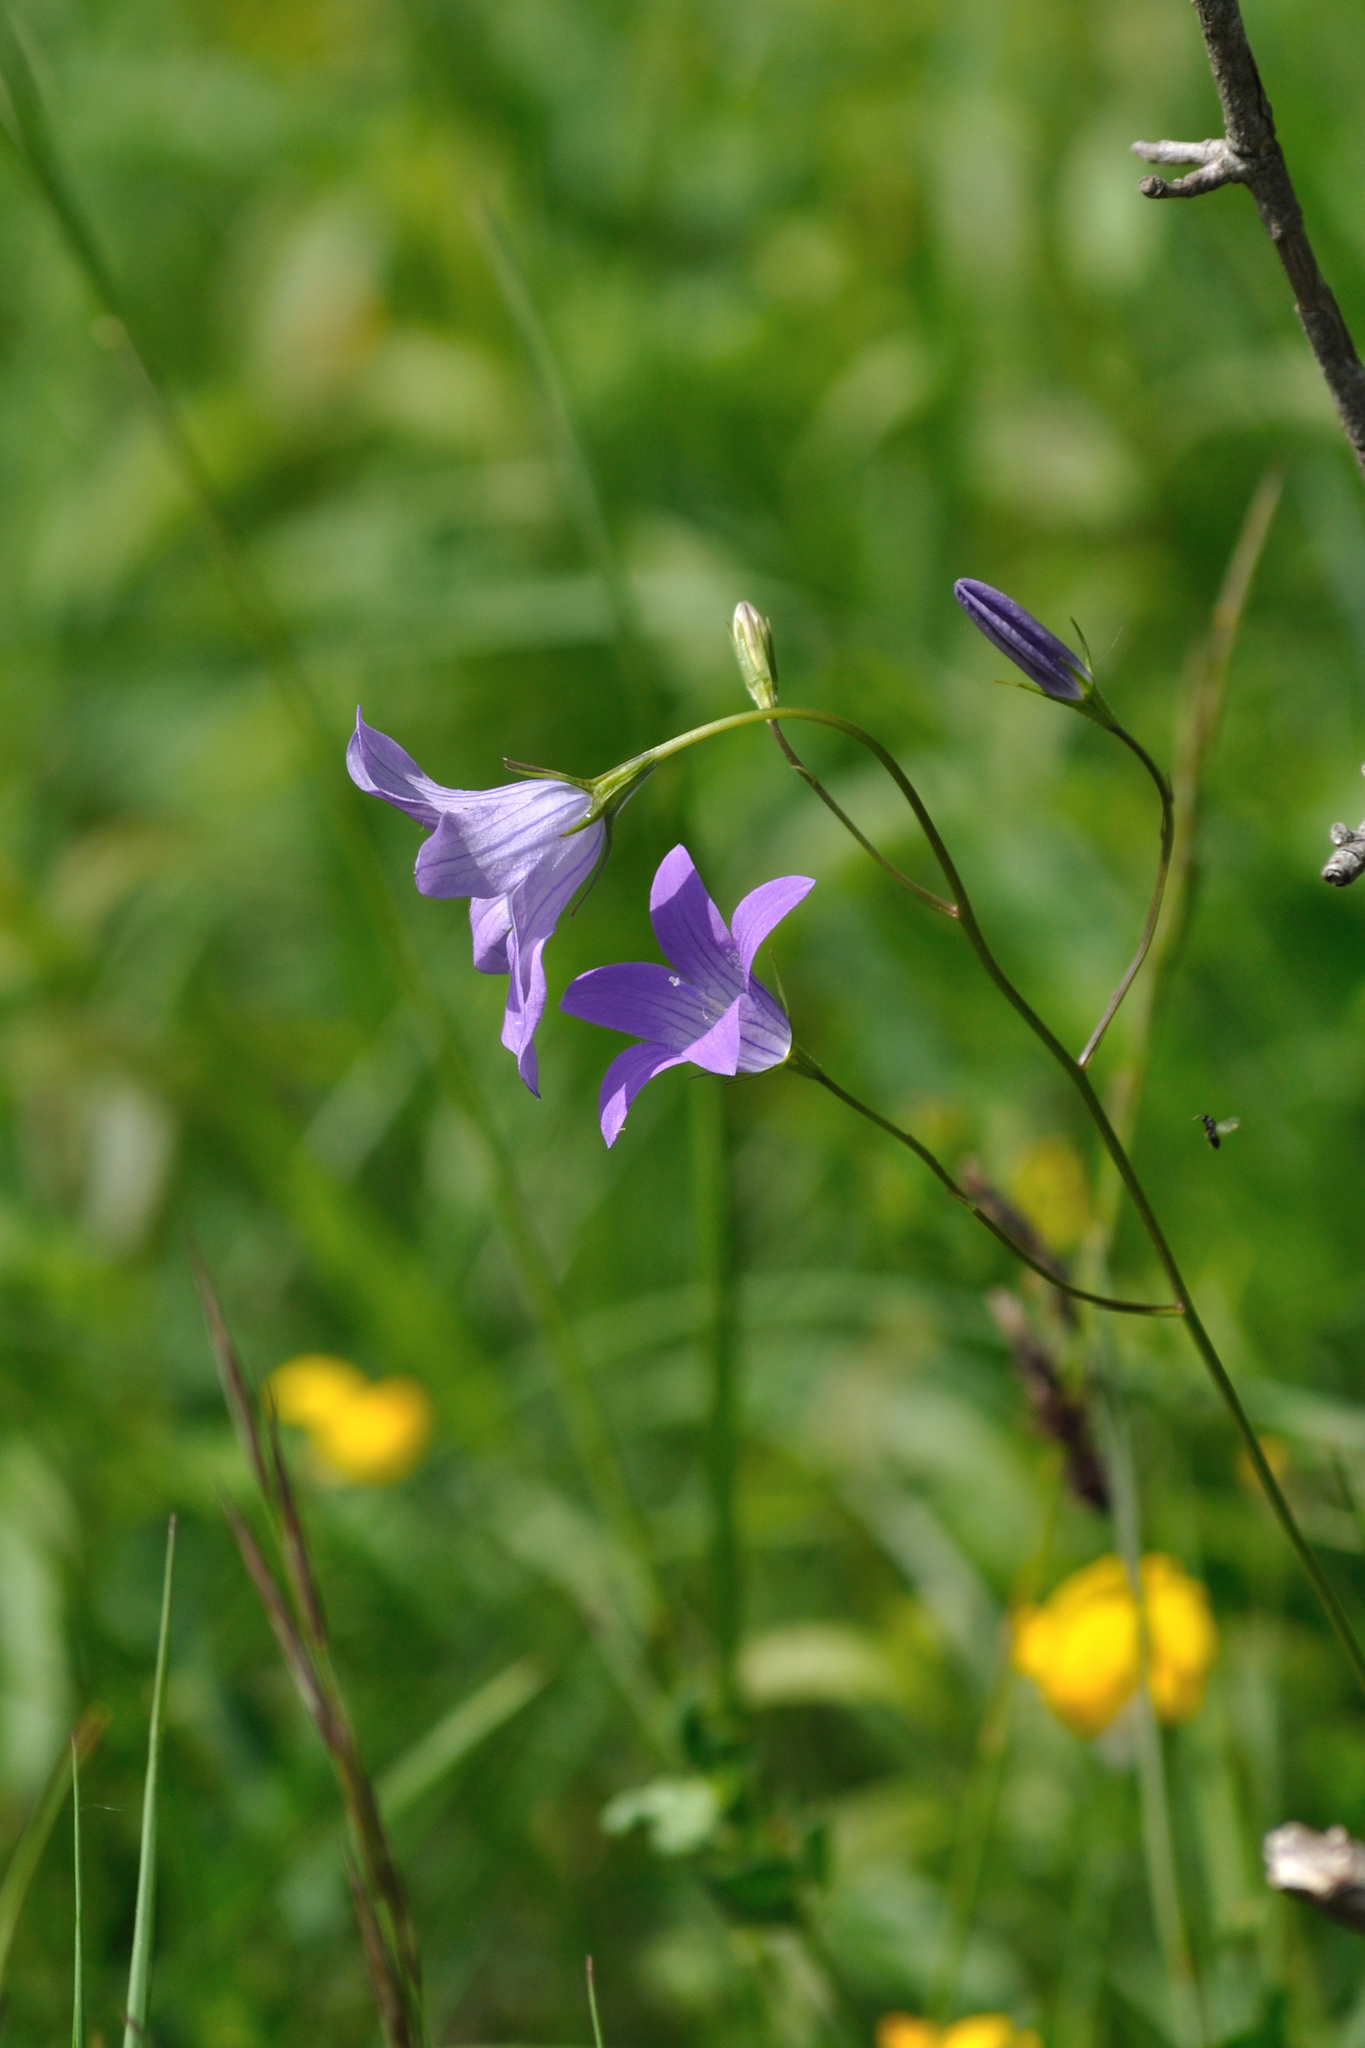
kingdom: Plantae
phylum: Tracheophyta
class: Magnoliopsida
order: Asterales
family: Campanulaceae
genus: Campanula
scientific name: Campanula patula
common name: Spreading bellflower
